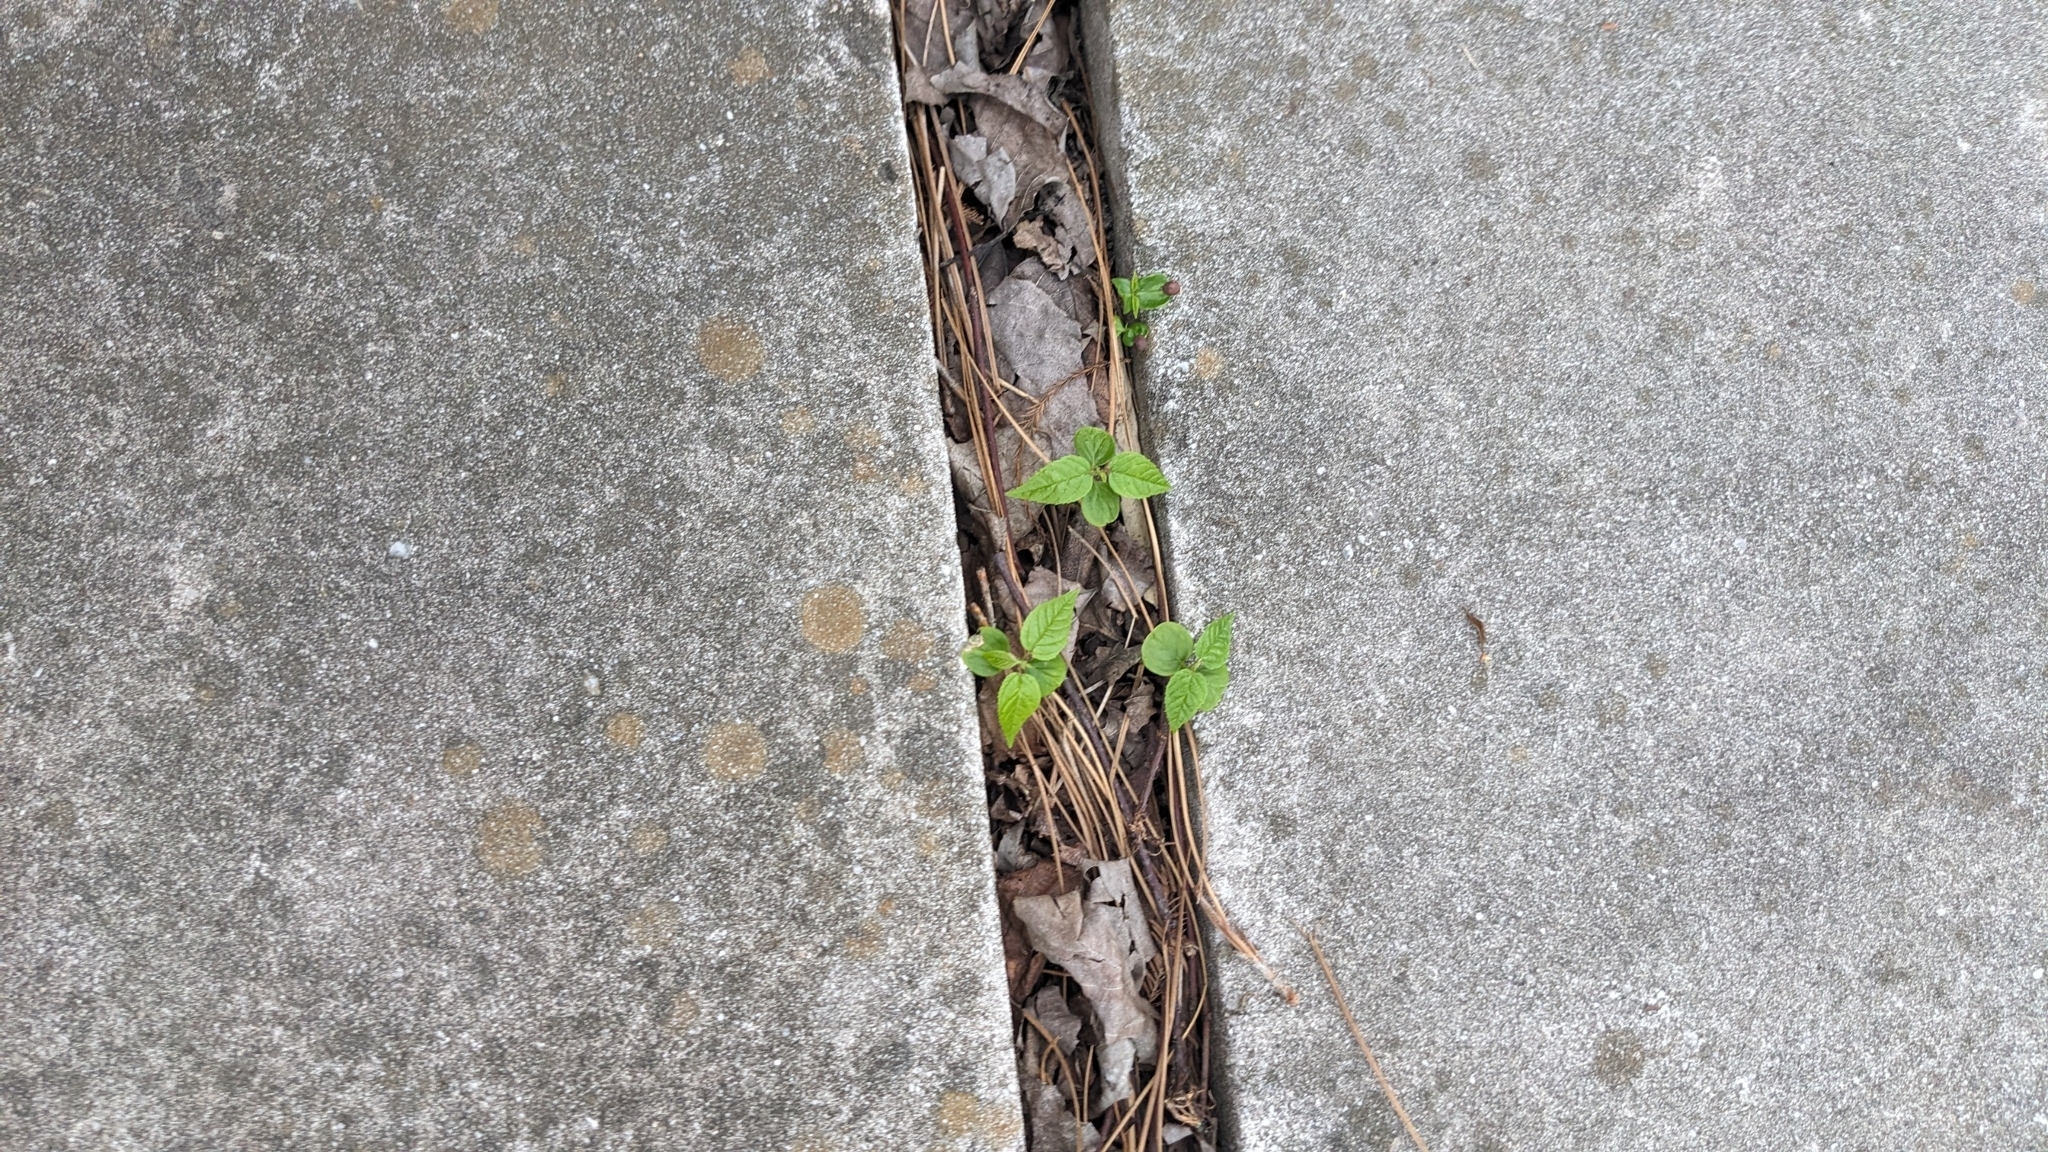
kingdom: Plantae
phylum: Tracheophyta
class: Magnoliopsida
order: Rosales
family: Rhamnaceae
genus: Hovenia
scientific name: Hovenia dulcis
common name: Japanese raisintree
